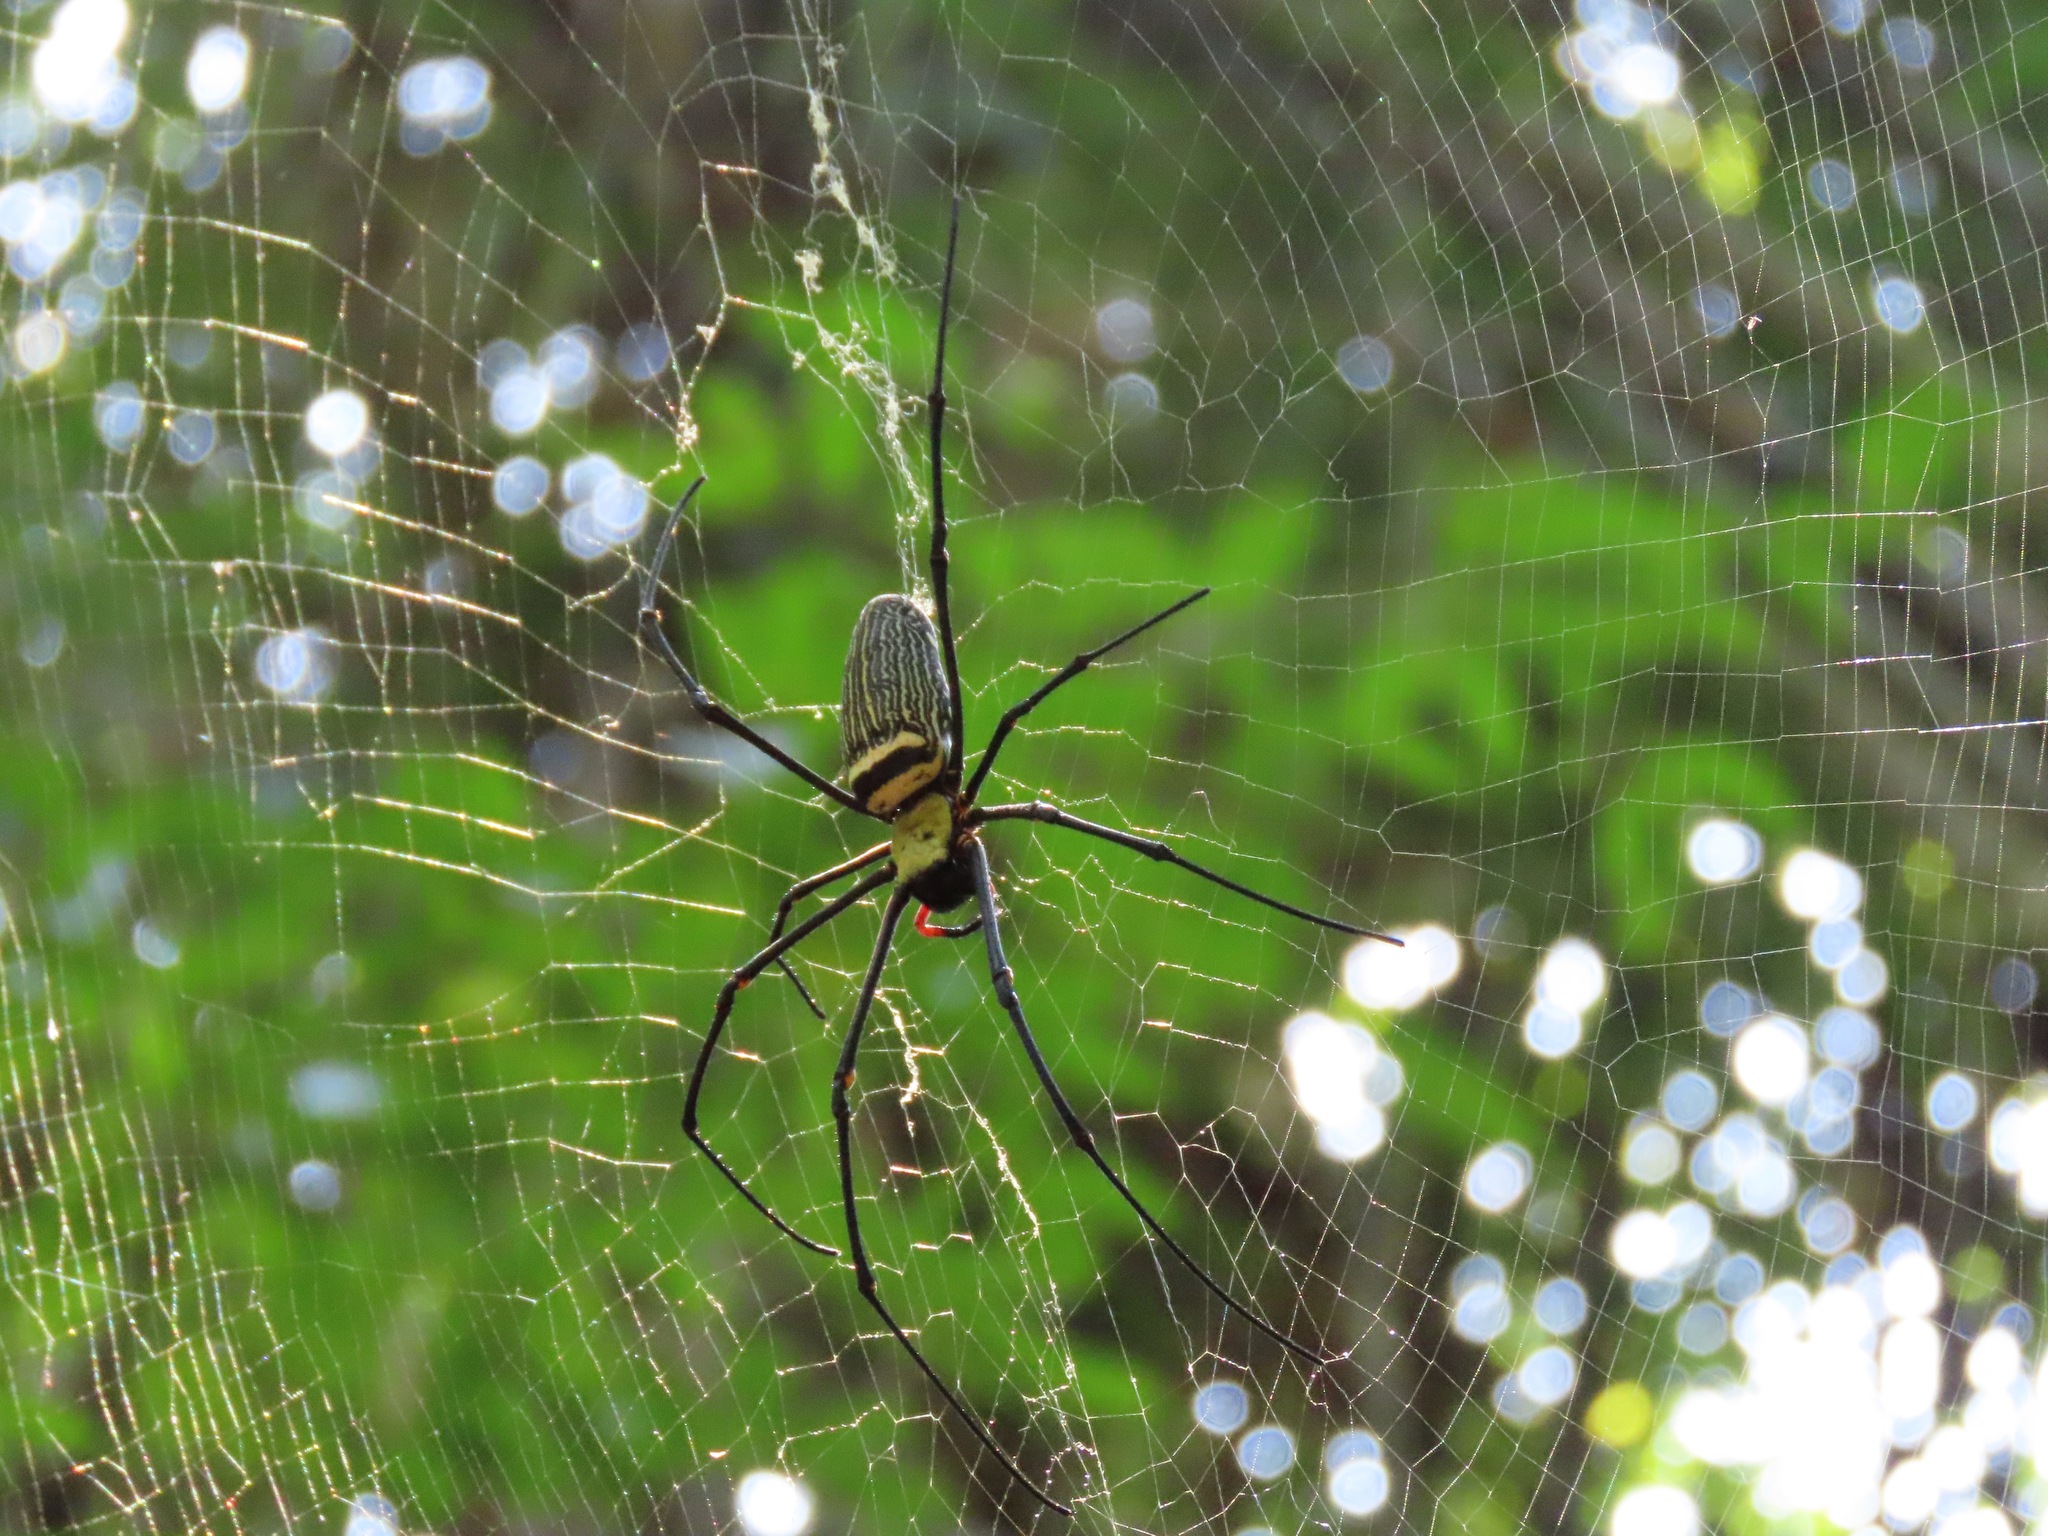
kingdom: Animalia
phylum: Arthropoda
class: Arachnida
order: Araneae
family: Araneidae
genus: Nephila
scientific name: Nephila pilipes
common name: Giant golden orb weaver
